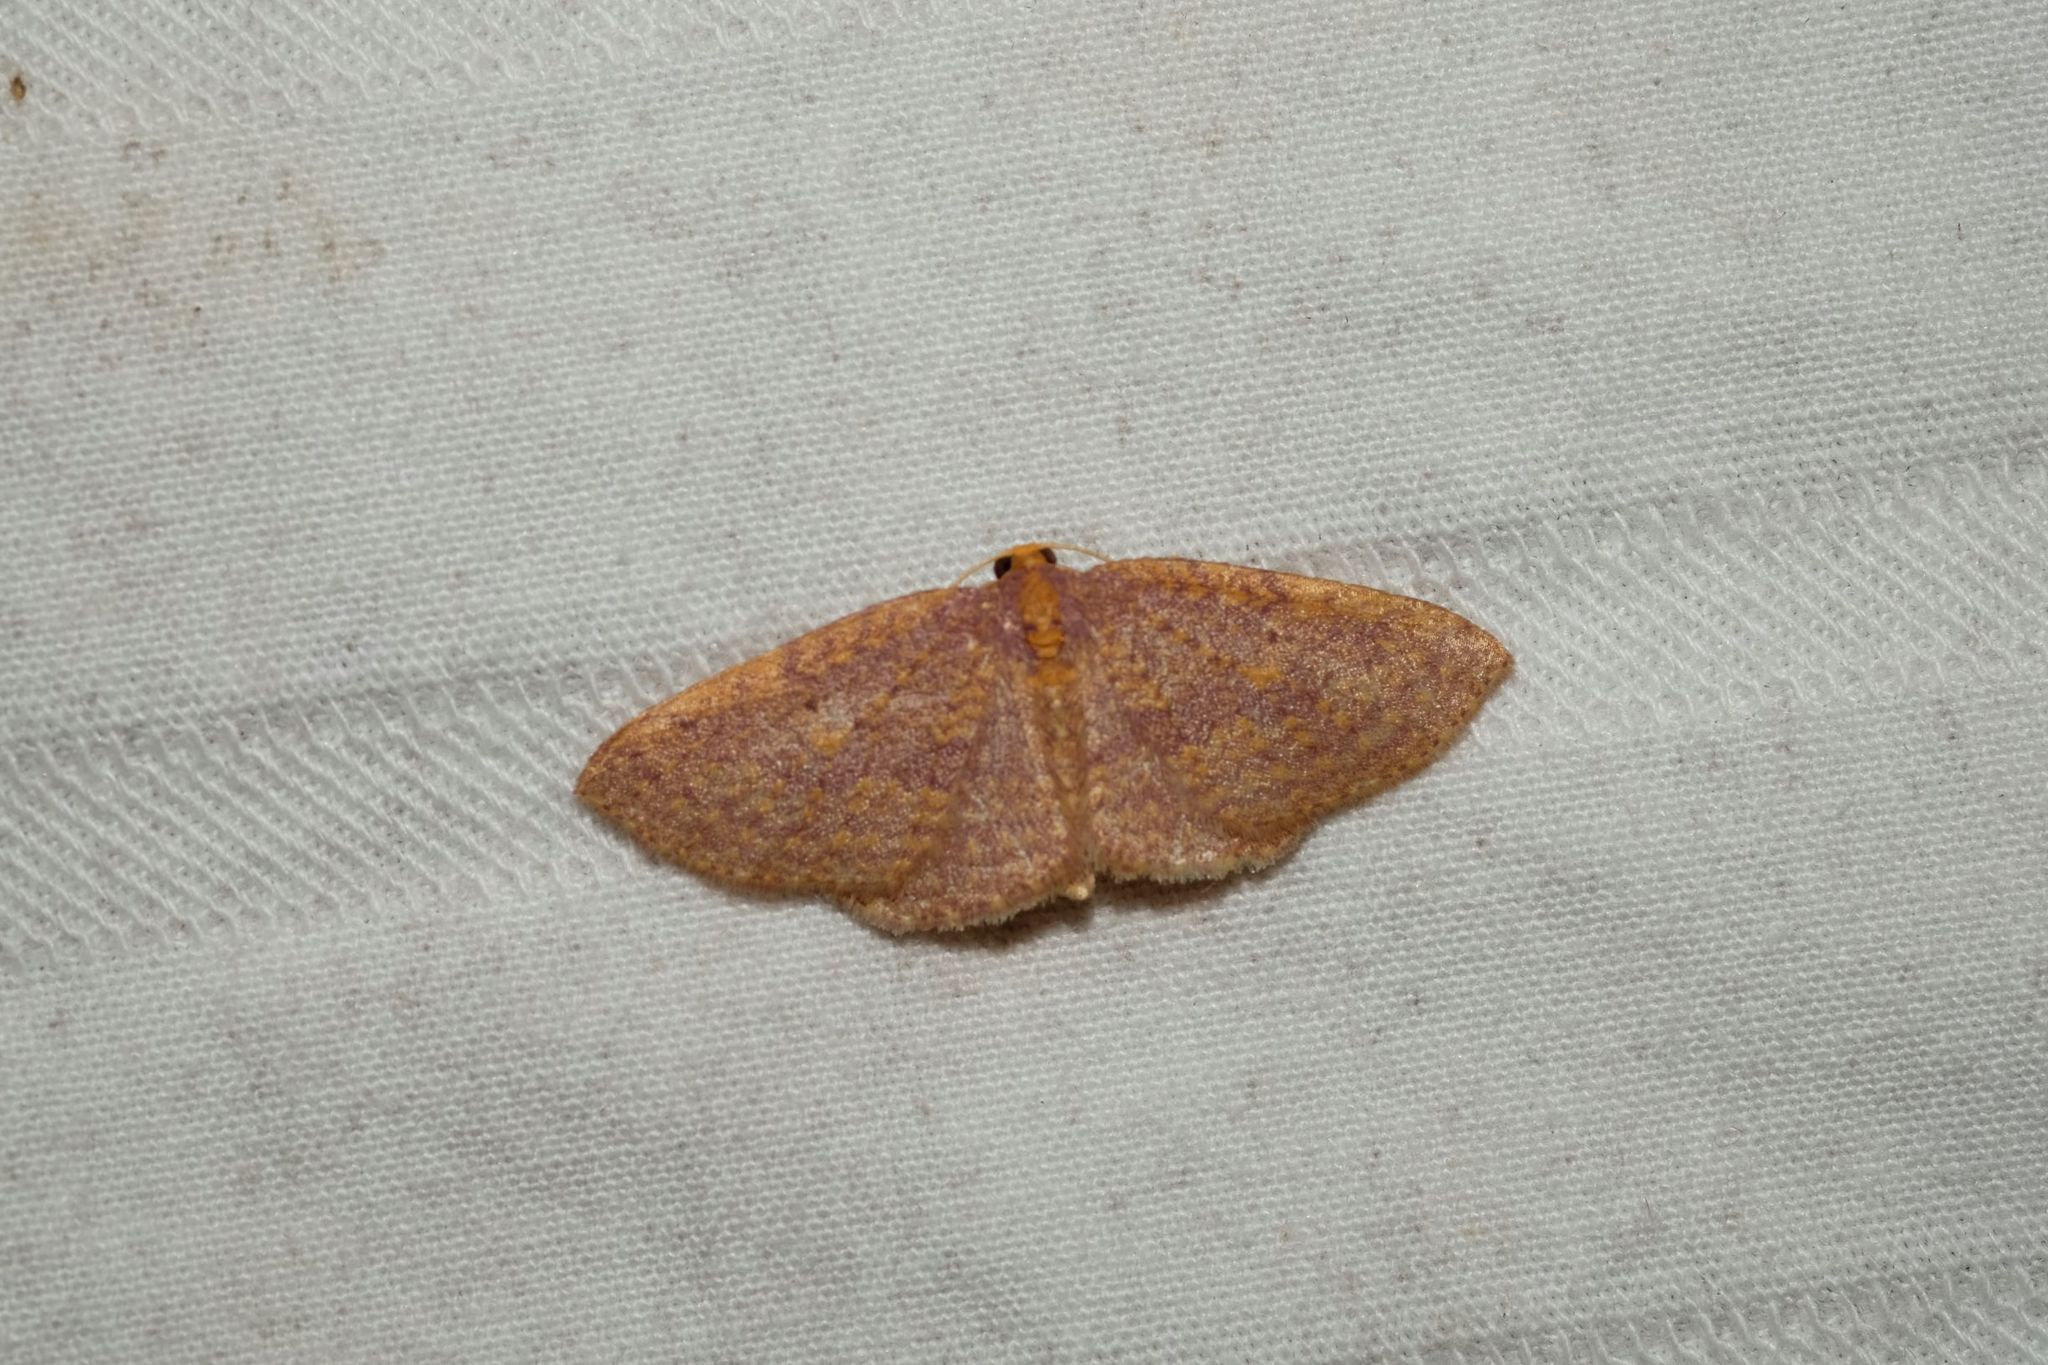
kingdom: Animalia
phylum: Arthropoda
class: Insecta
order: Lepidoptera
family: Geometridae
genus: Poecilasthena
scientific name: Poecilasthena anthodes
